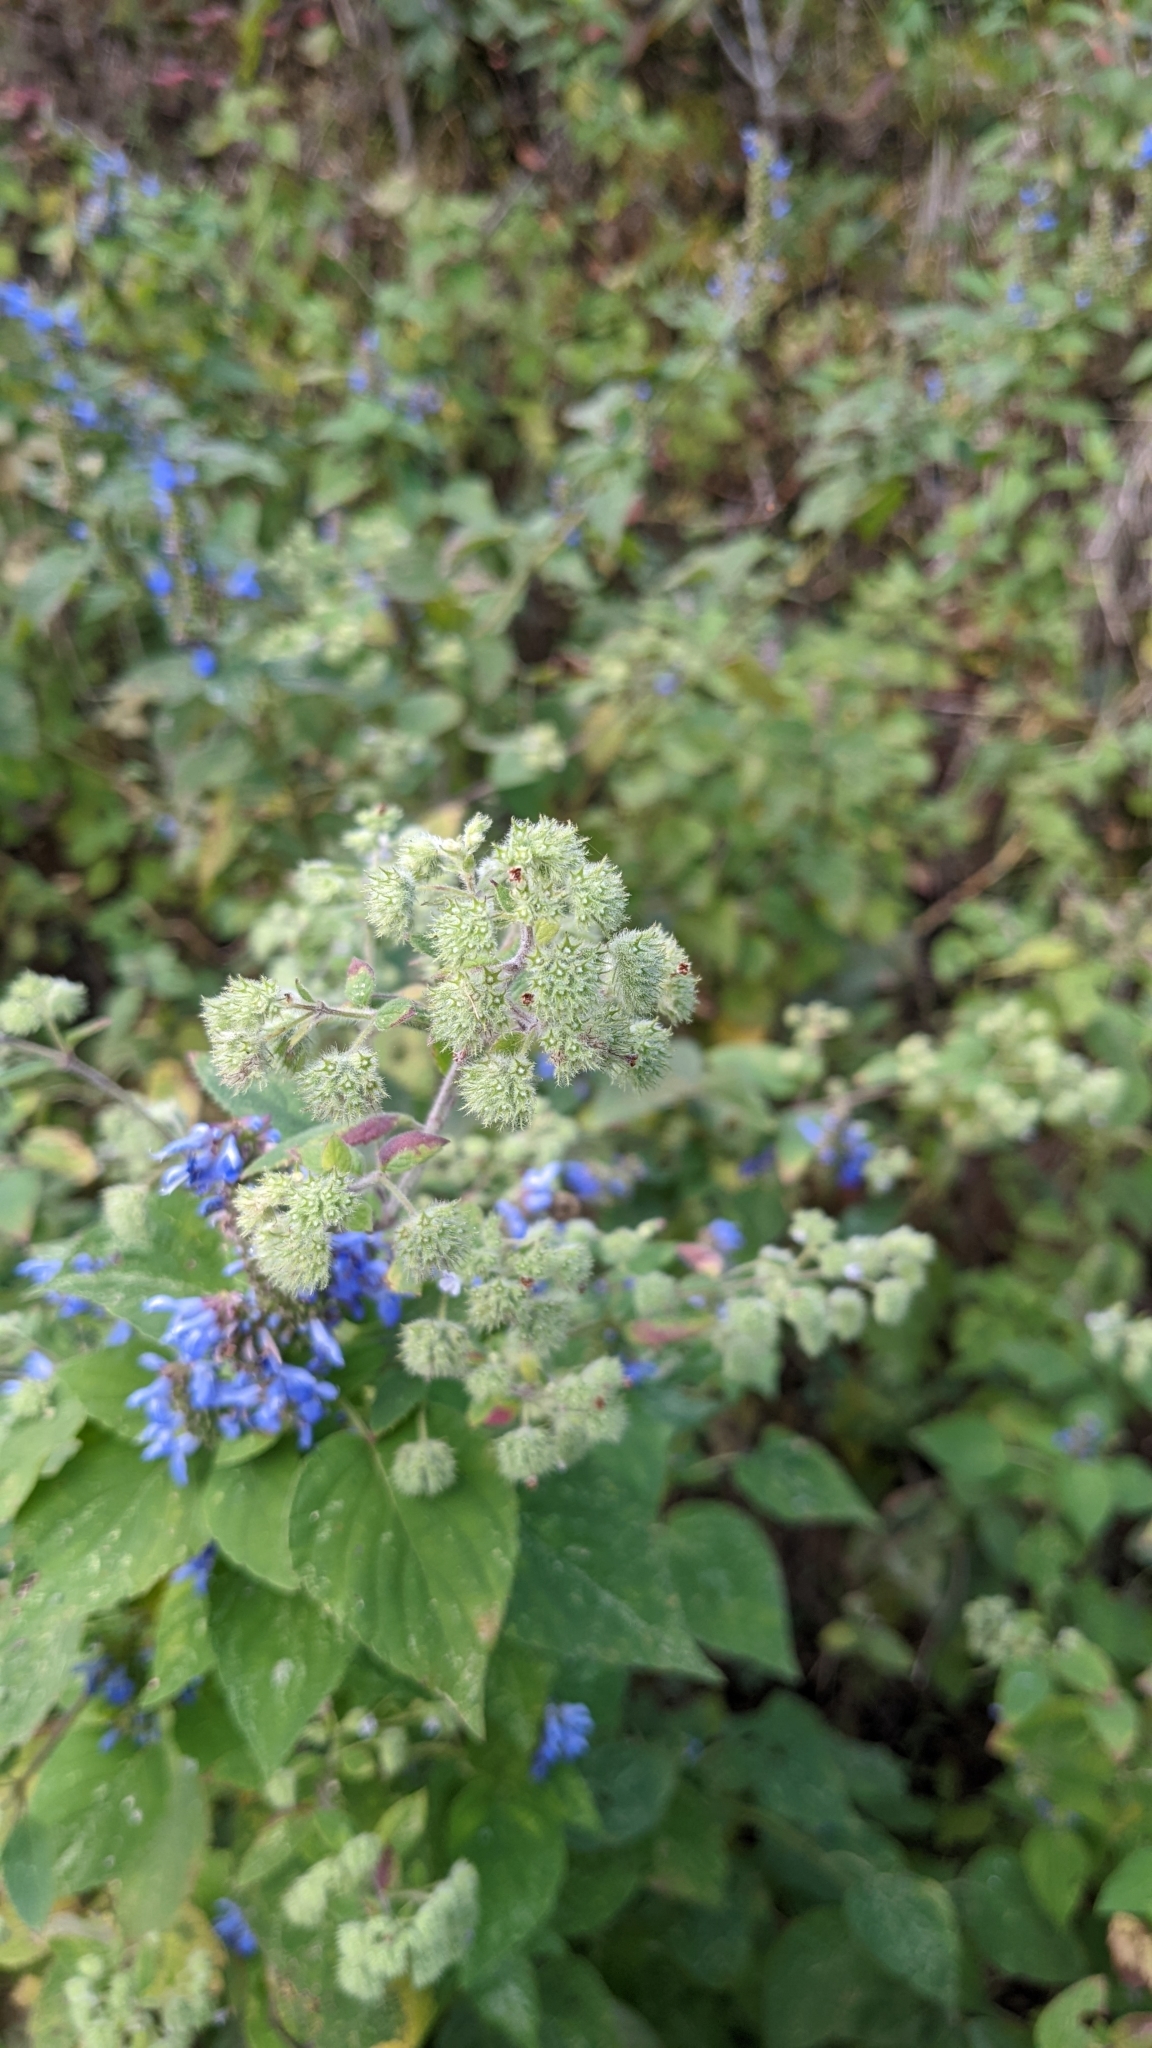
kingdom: Plantae
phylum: Tracheophyta
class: Magnoliopsida
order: Lamiales
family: Lamiaceae
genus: Mesosphaerum
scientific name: Mesosphaerum urticoides
